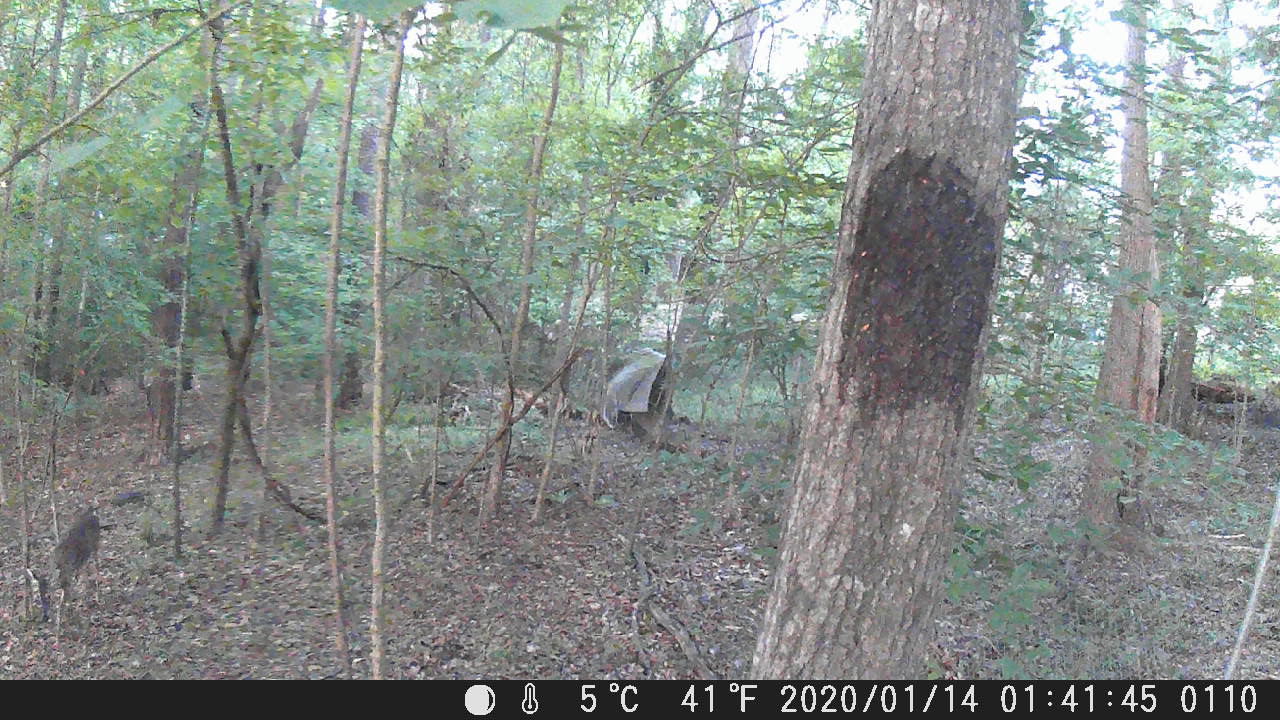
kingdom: Animalia
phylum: Chordata
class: Mammalia
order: Artiodactyla
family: Cervidae
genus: Odocoileus
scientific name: Odocoileus virginianus
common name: White-tailed deer
